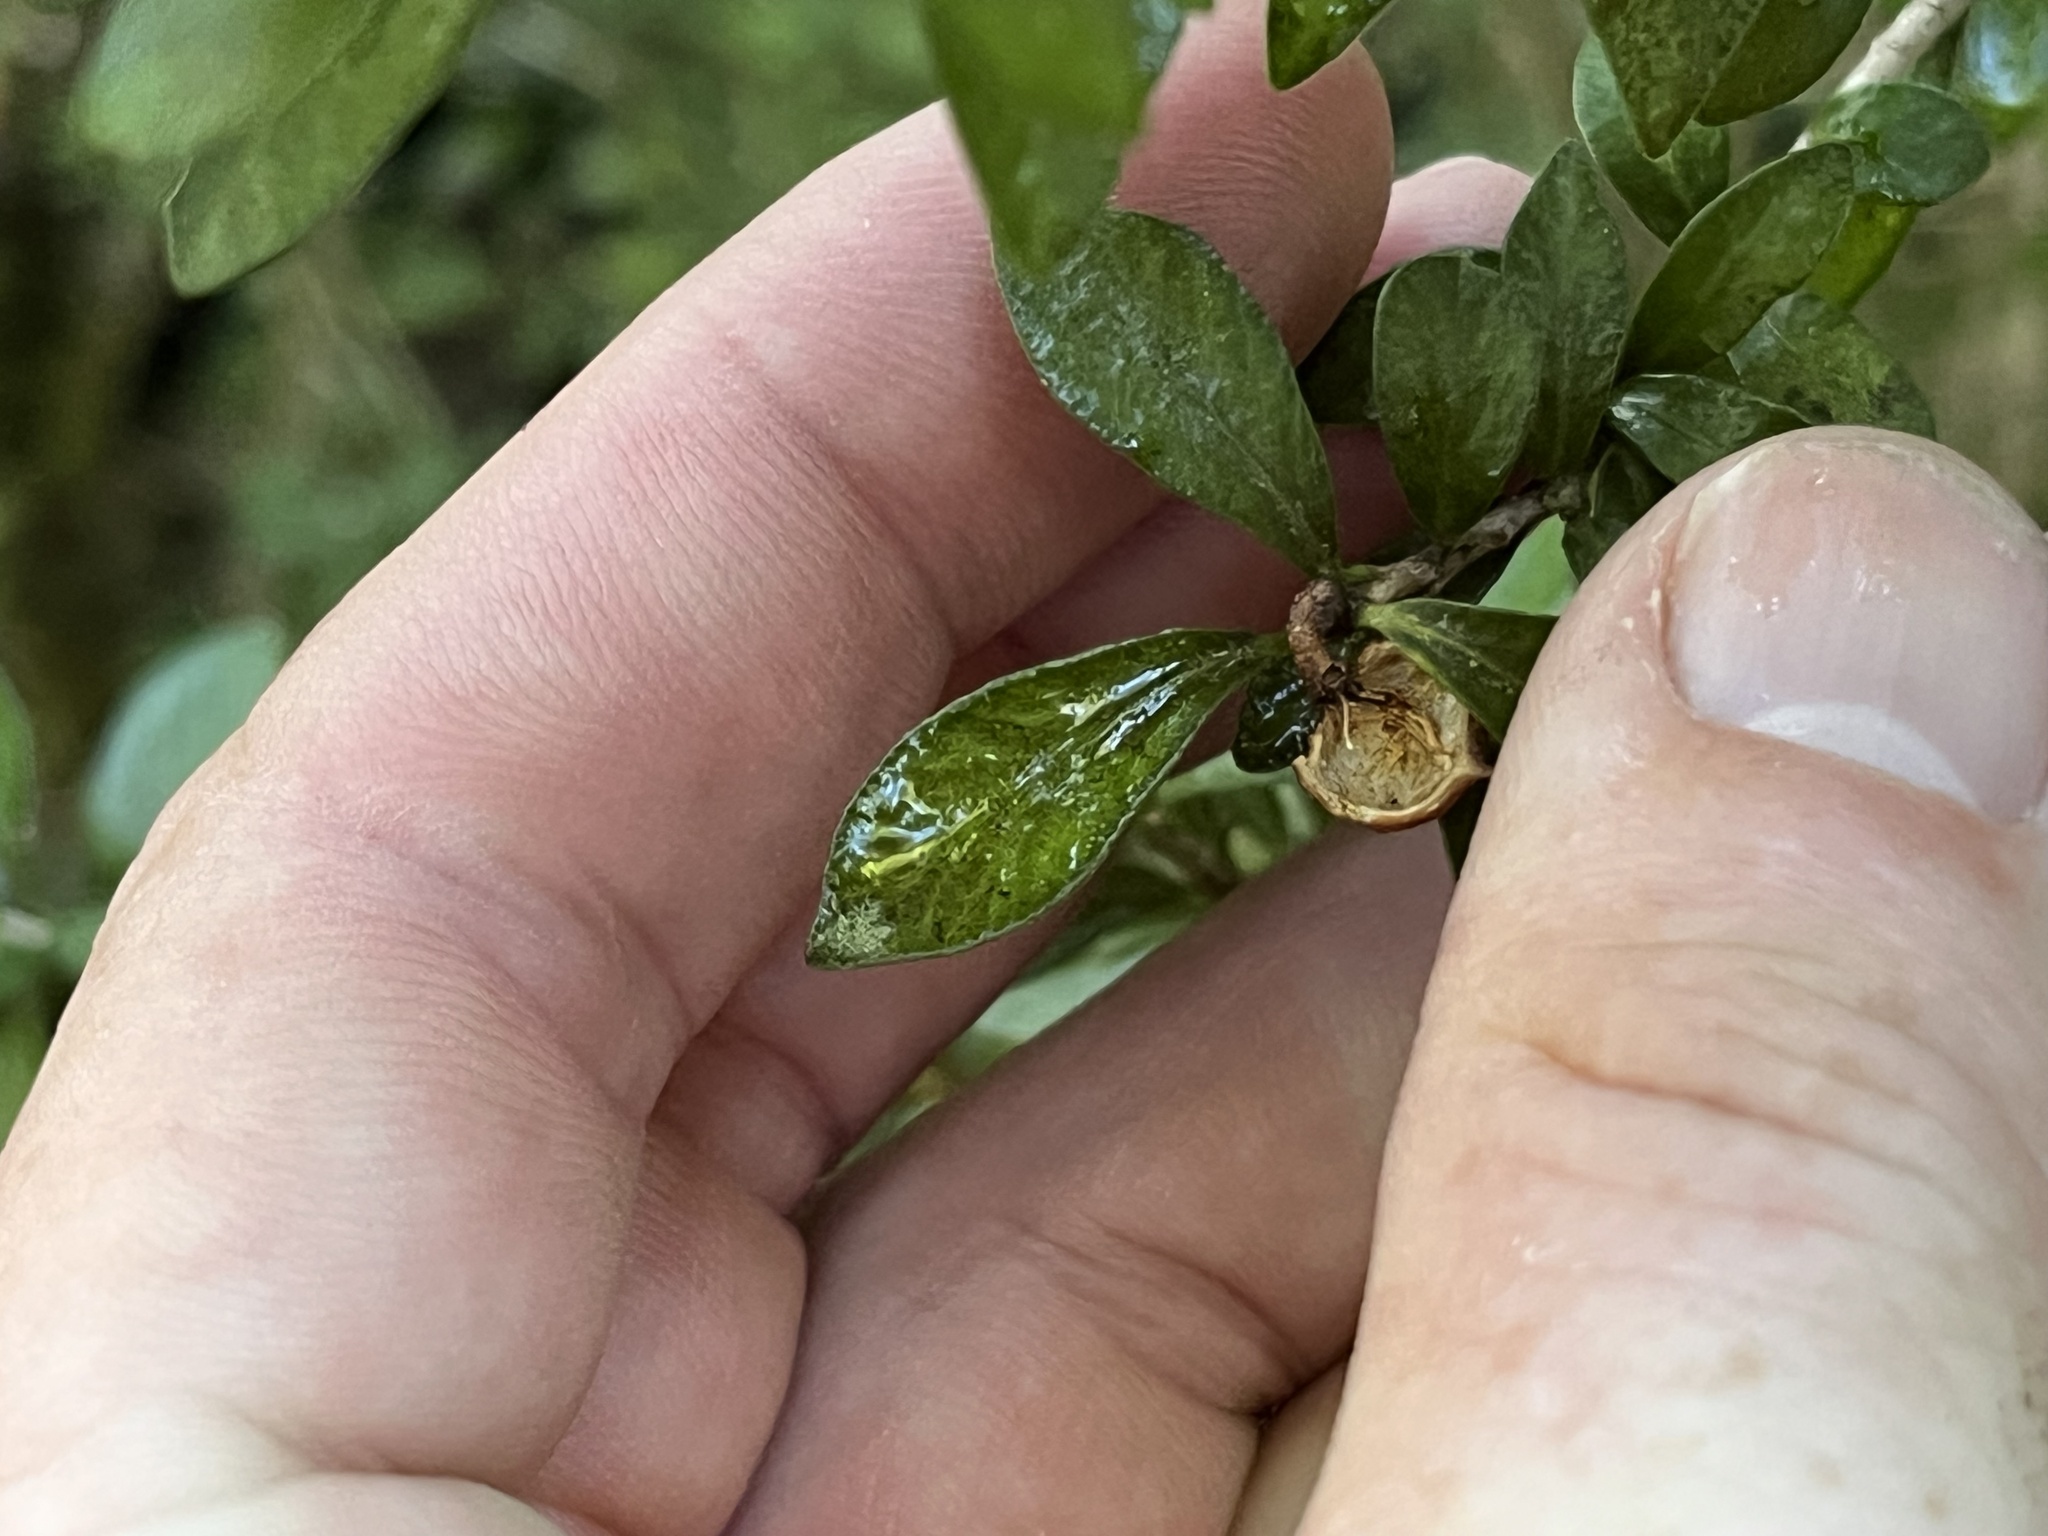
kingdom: Plantae
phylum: Tracheophyta
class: Magnoliopsida
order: Apiales
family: Pittosporaceae
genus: Pittosporum
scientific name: Pittosporum rigidum
